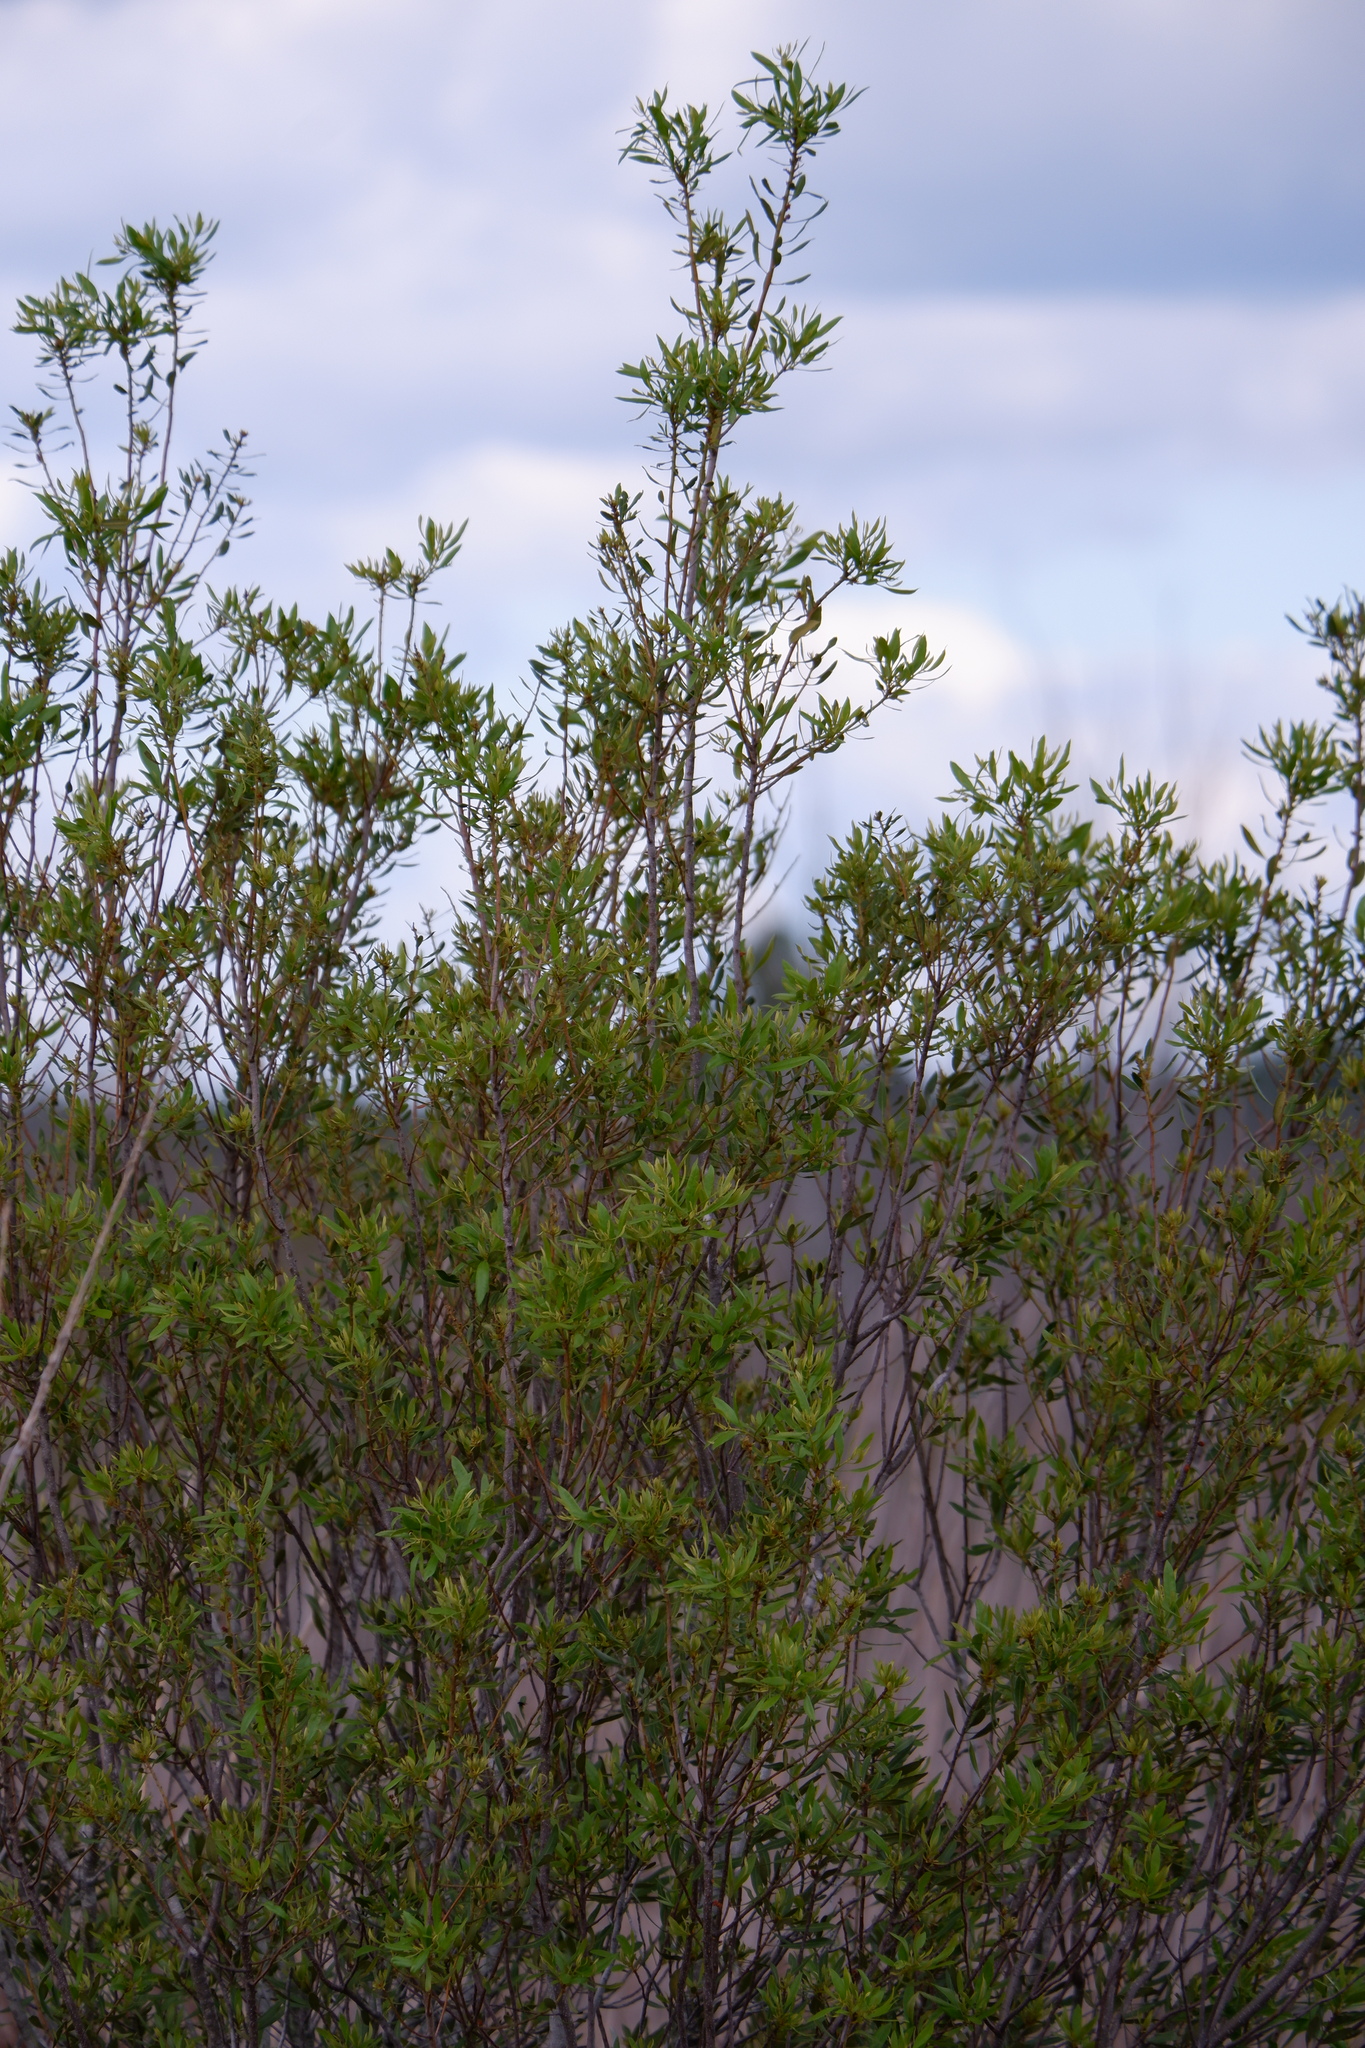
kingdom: Plantae
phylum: Tracheophyta
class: Magnoliopsida
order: Fagales
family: Myricaceae
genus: Morella
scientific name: Morella cerifera
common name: Wax myrtle
